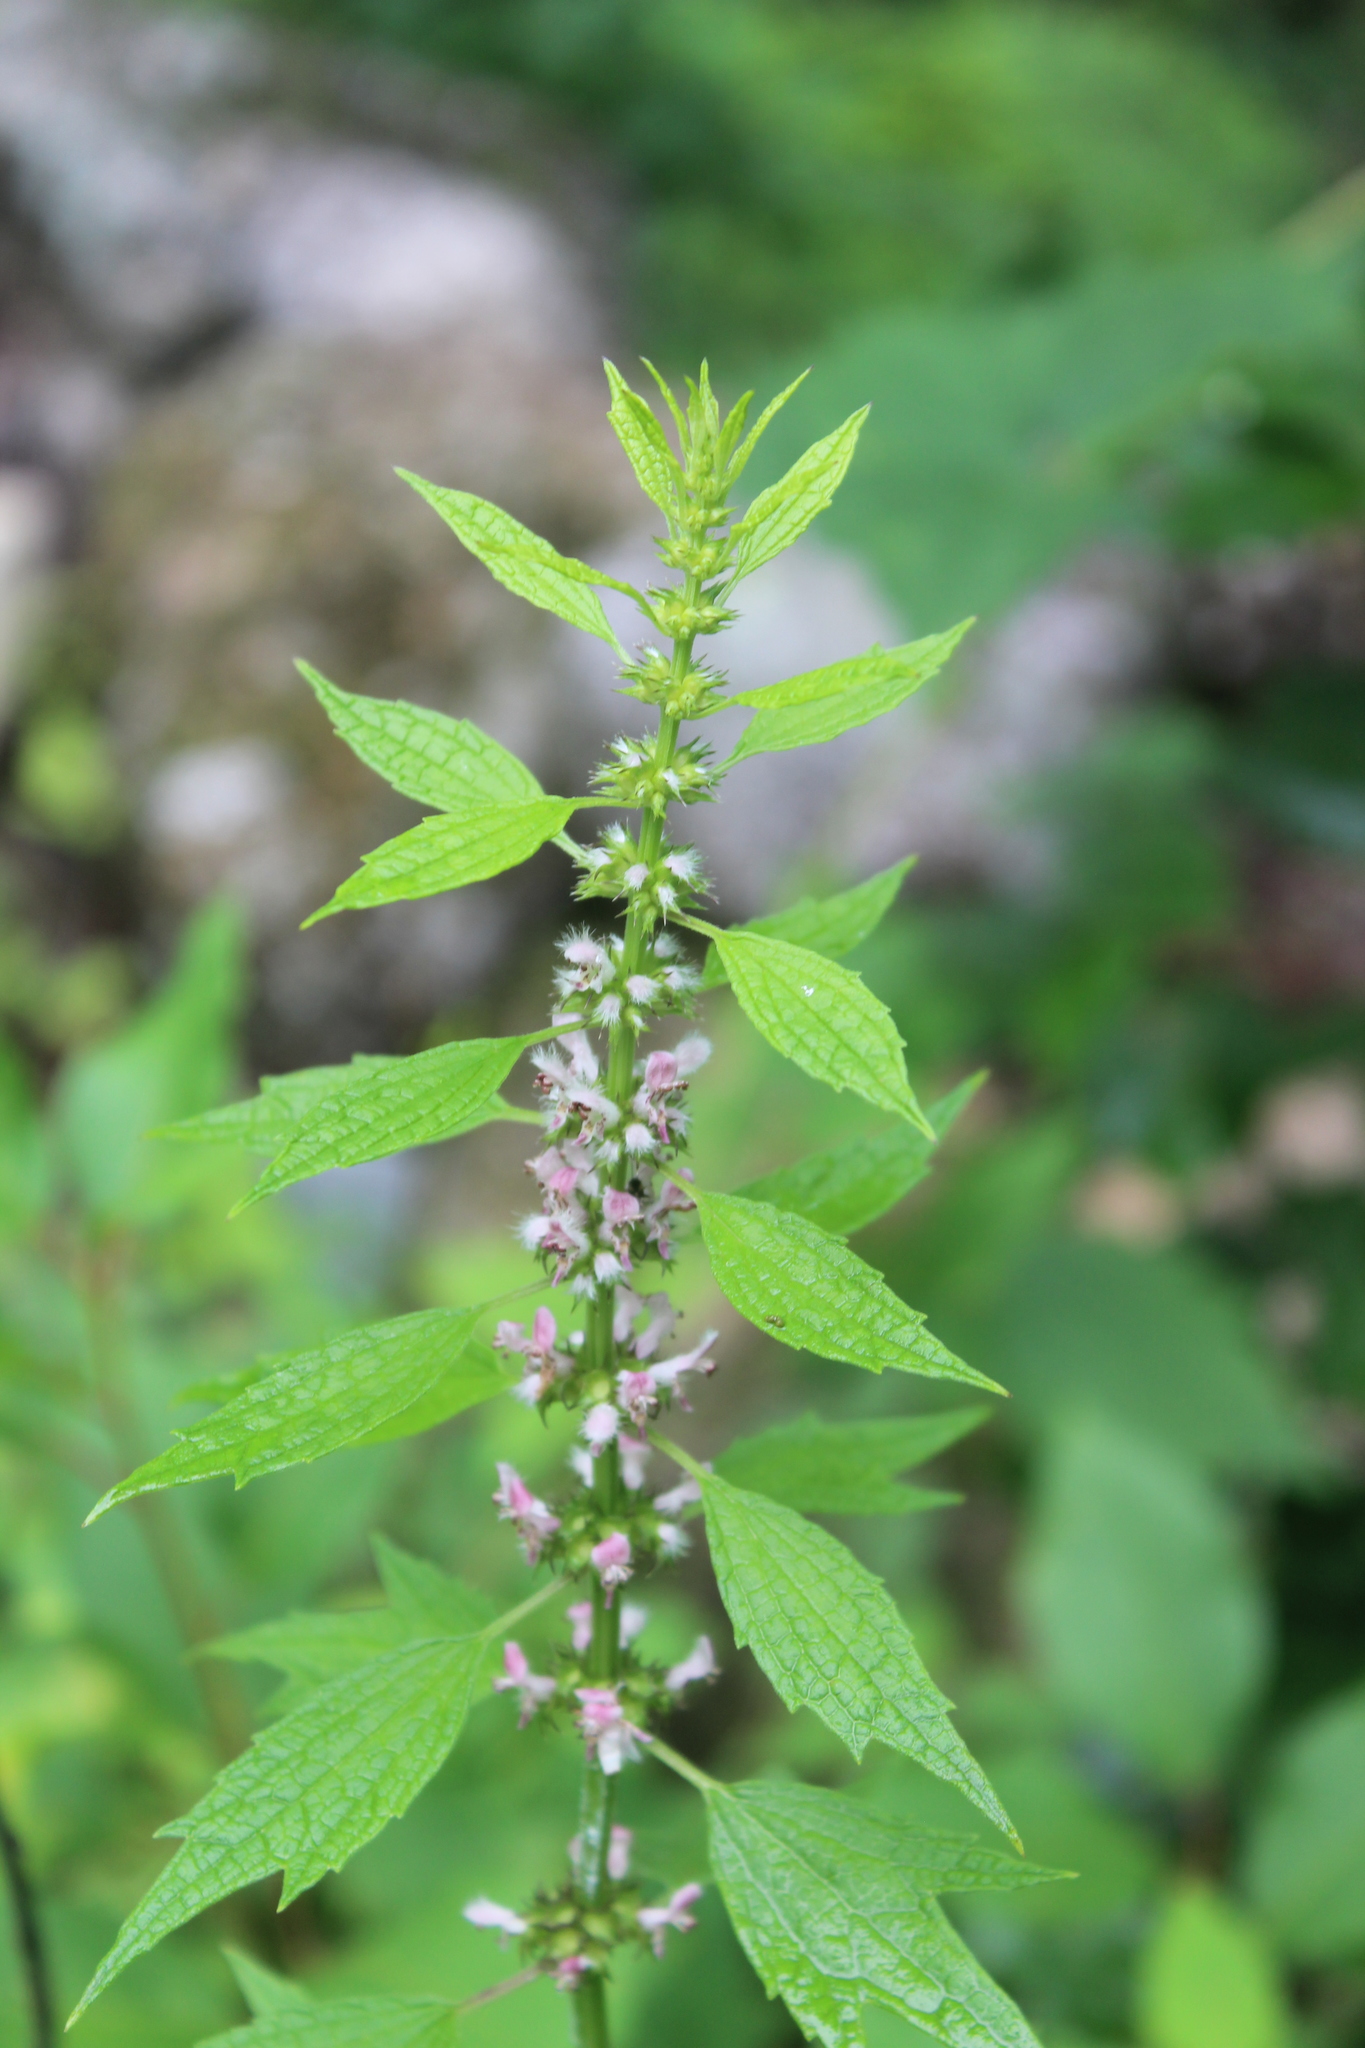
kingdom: Plantae
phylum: Tracheophyta
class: Magnoliopsida
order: Lamiales
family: Lamiaceae
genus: Leonurus
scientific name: Leonurus cardiaca
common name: Motherwort
